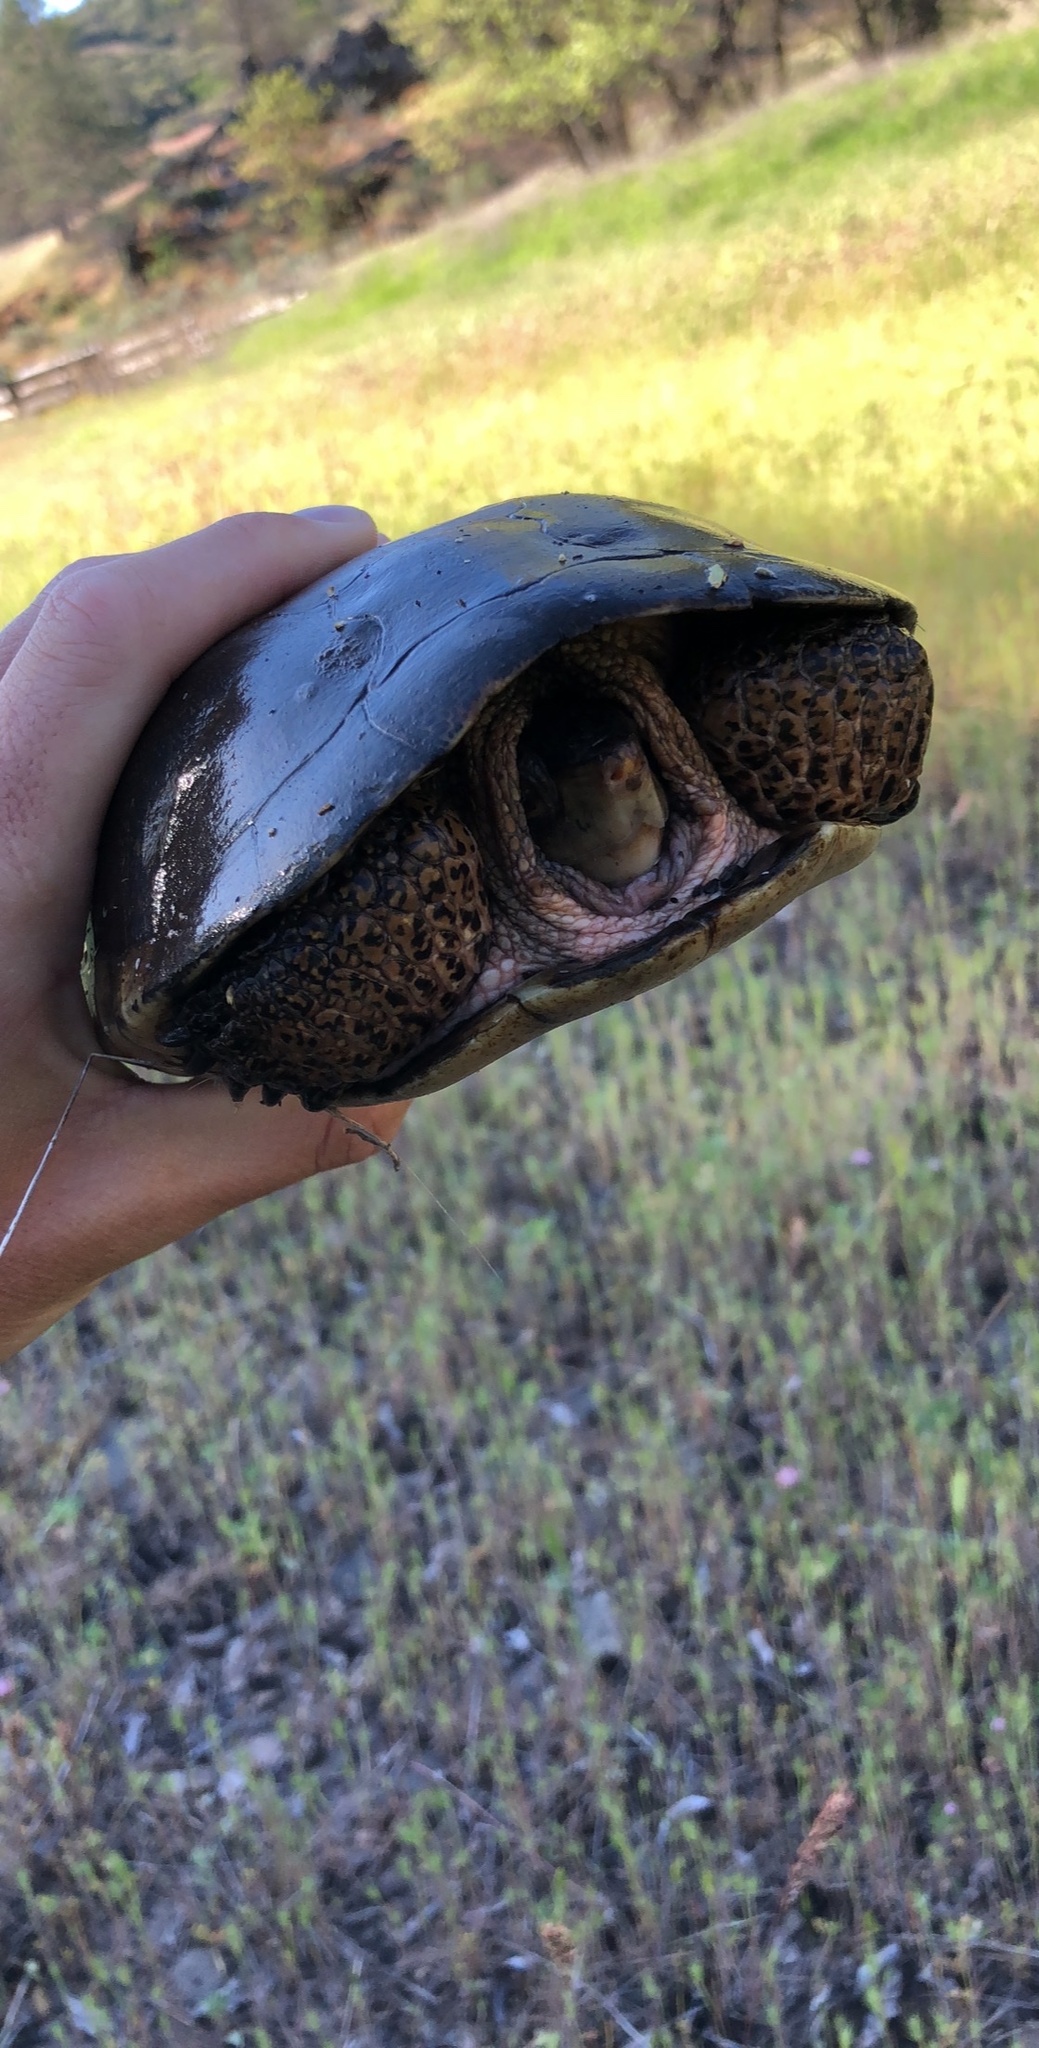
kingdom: Animalia
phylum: Chordata
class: Testudines
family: Emydidae
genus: Actinemys
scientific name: Actinemys marmorata
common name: Western pond turtle
